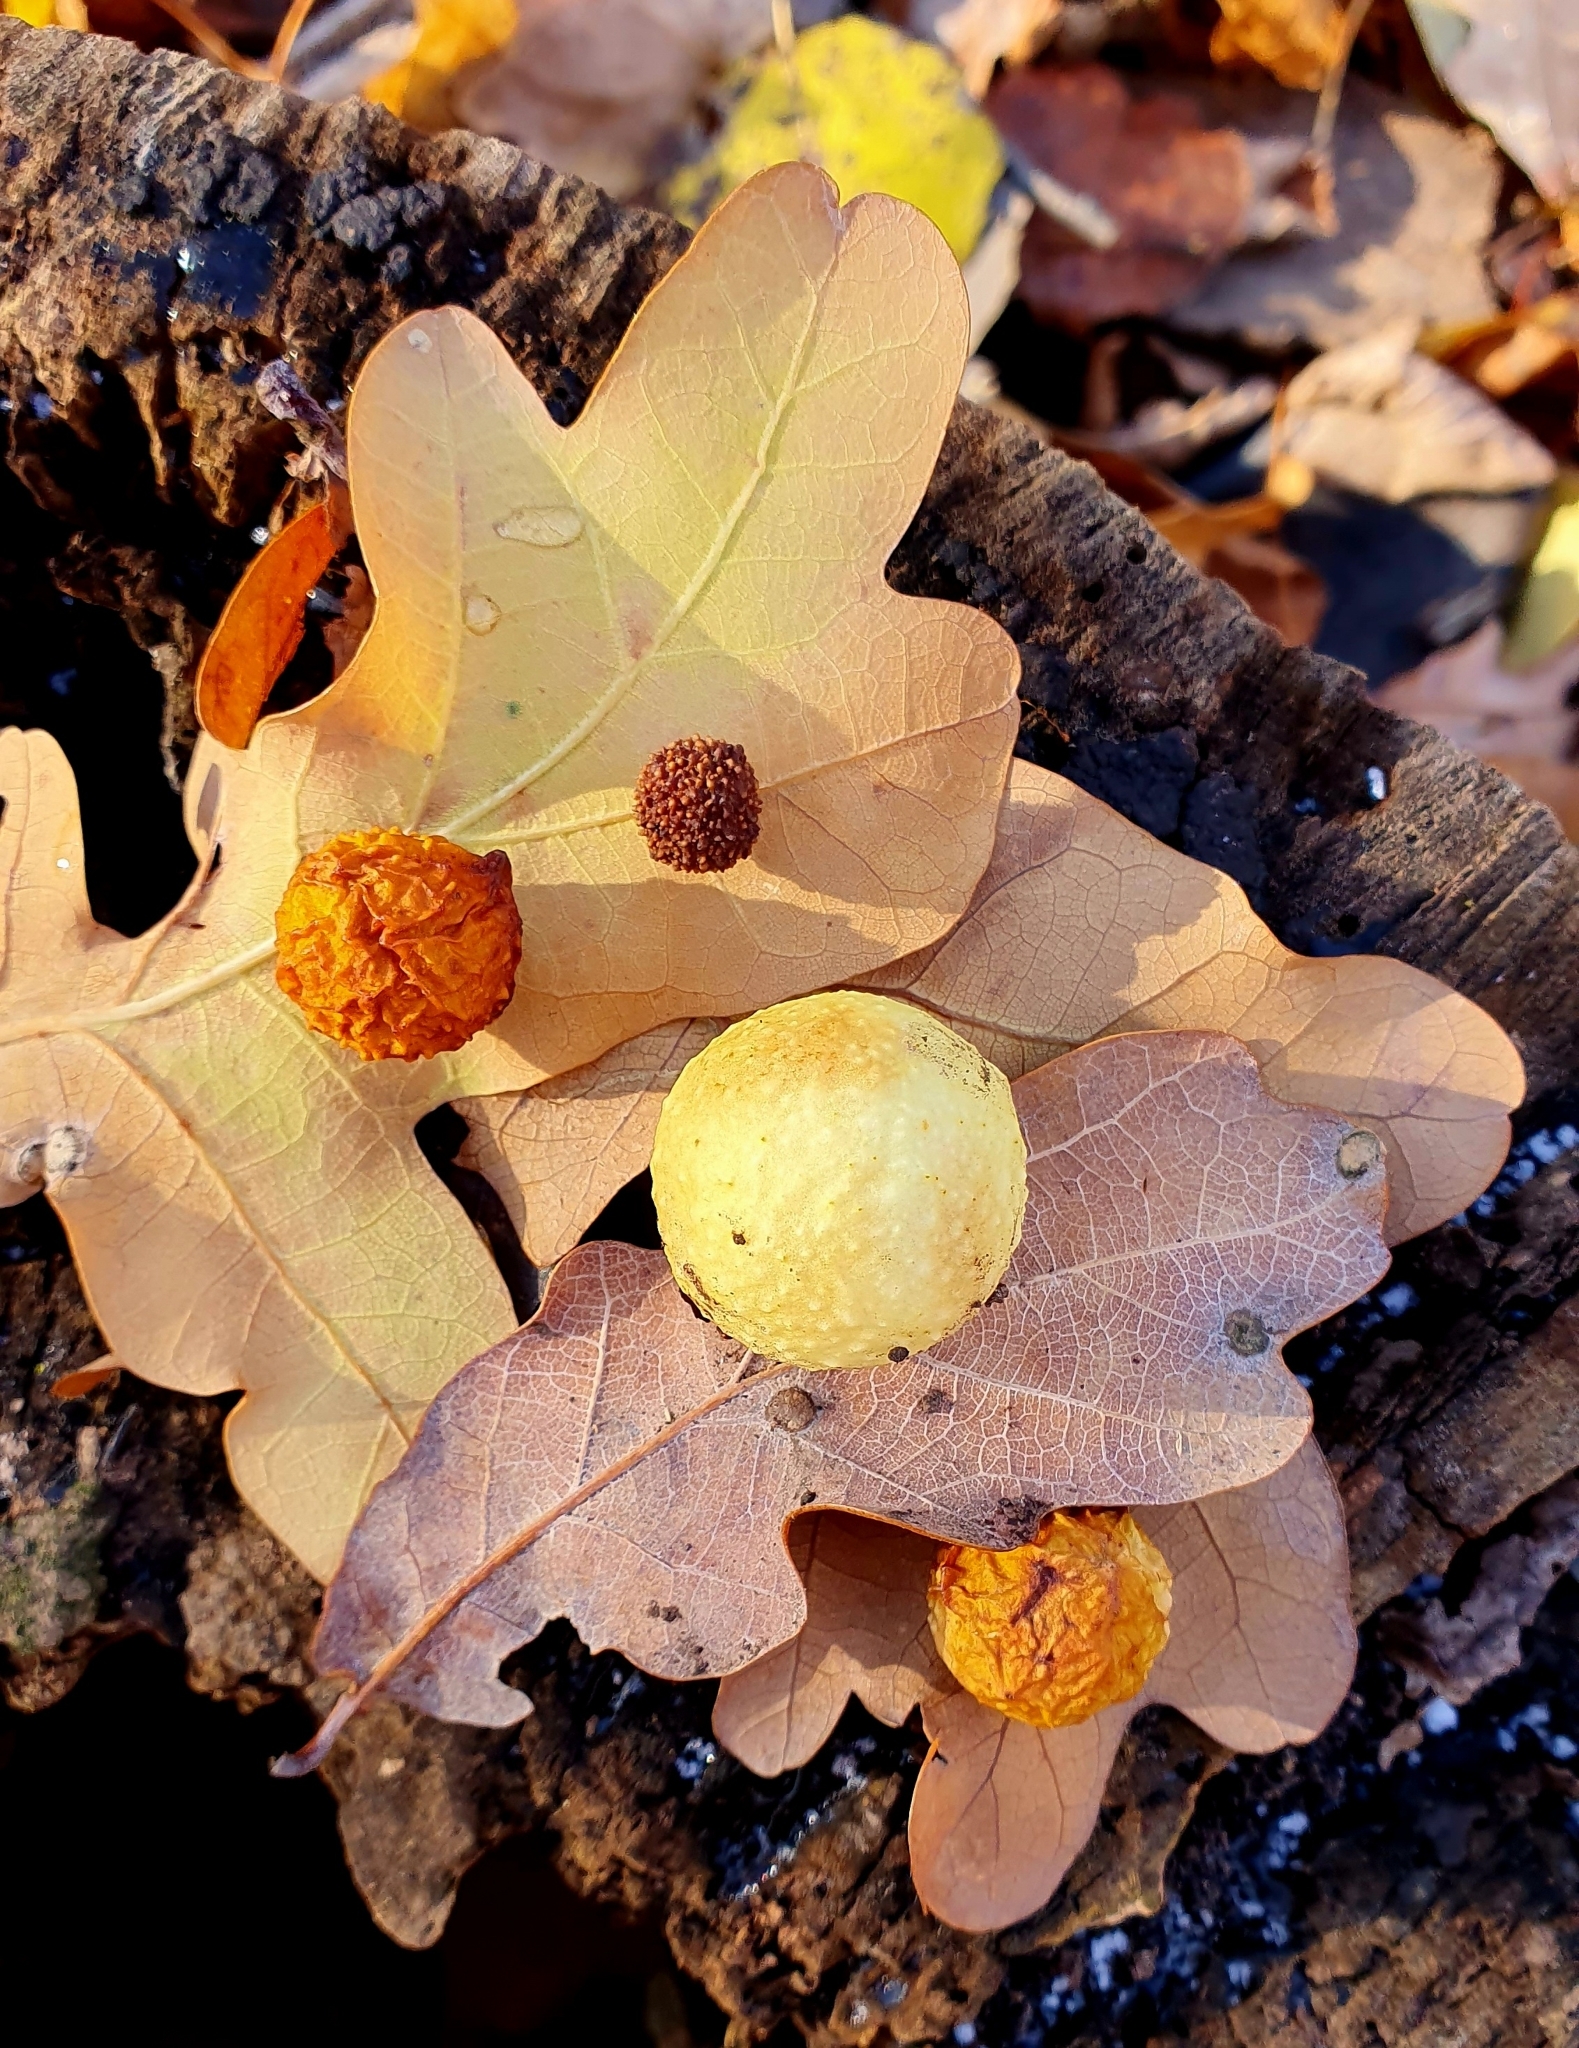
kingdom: Animalia
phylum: Arthropoda
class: Insecta
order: Hymenoptera
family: Cynipidae
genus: Cynips
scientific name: Cynips quercusfolii
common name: Cherry gall
